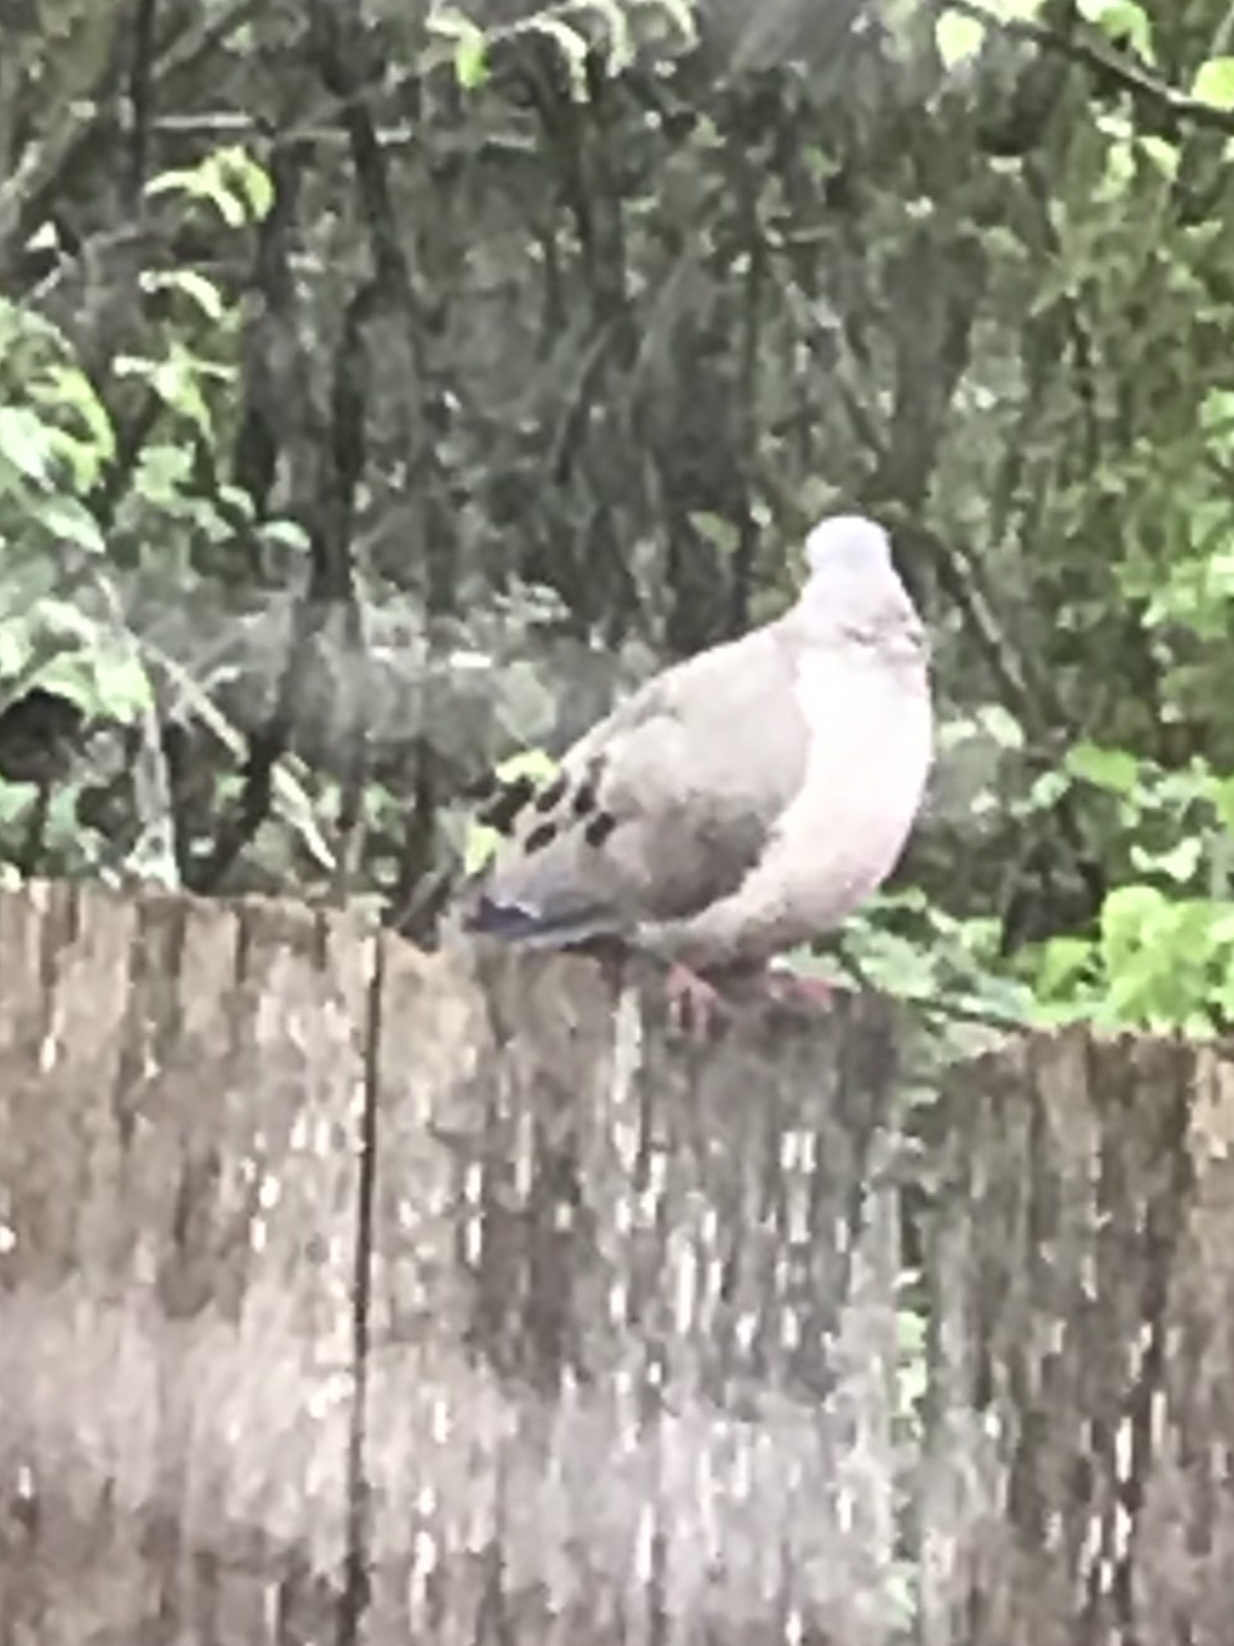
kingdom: Animalia
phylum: Chordata
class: Aves
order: Columbiformes
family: Columbidae
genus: Zenaida
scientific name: Zenaida macroura
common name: Mourning dove
